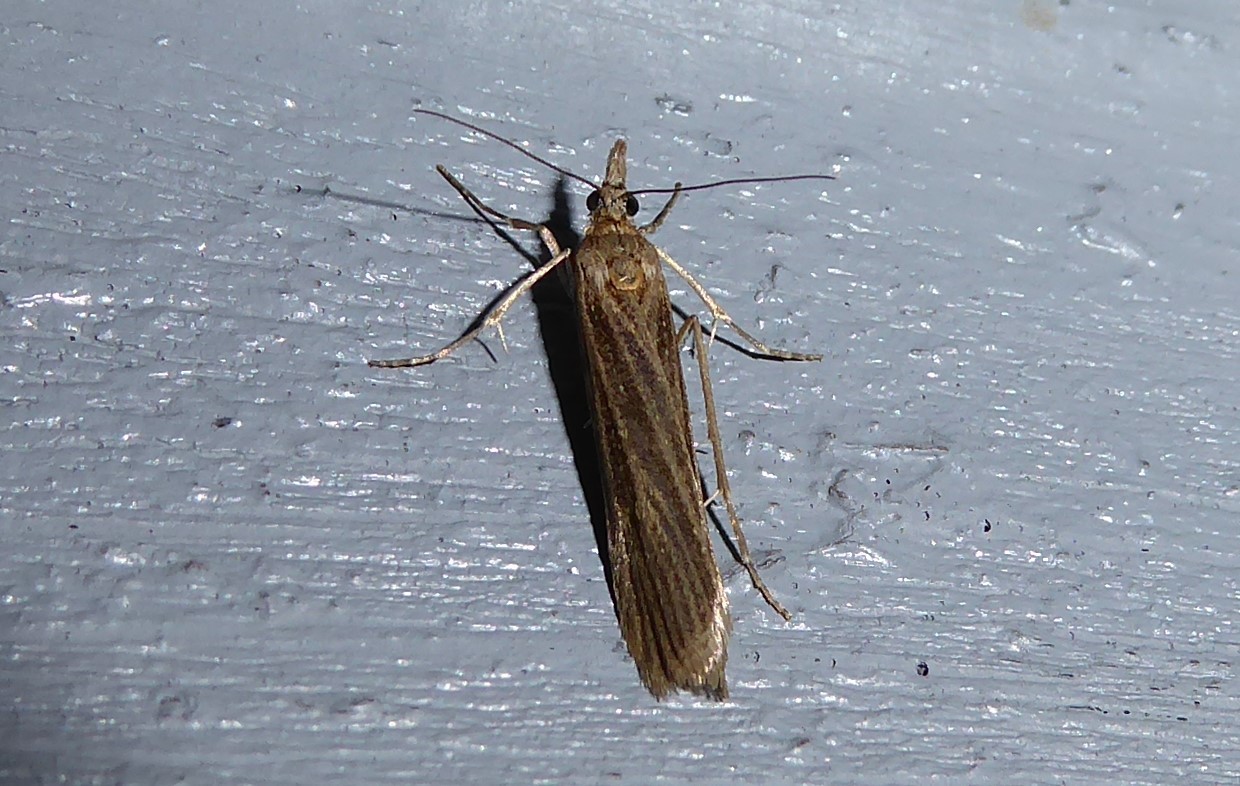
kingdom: Animalia
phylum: Arthropoda
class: Insecta
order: Lepidoptera
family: Crambidae
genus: Eudonia
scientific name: Eudonia atmogramma
